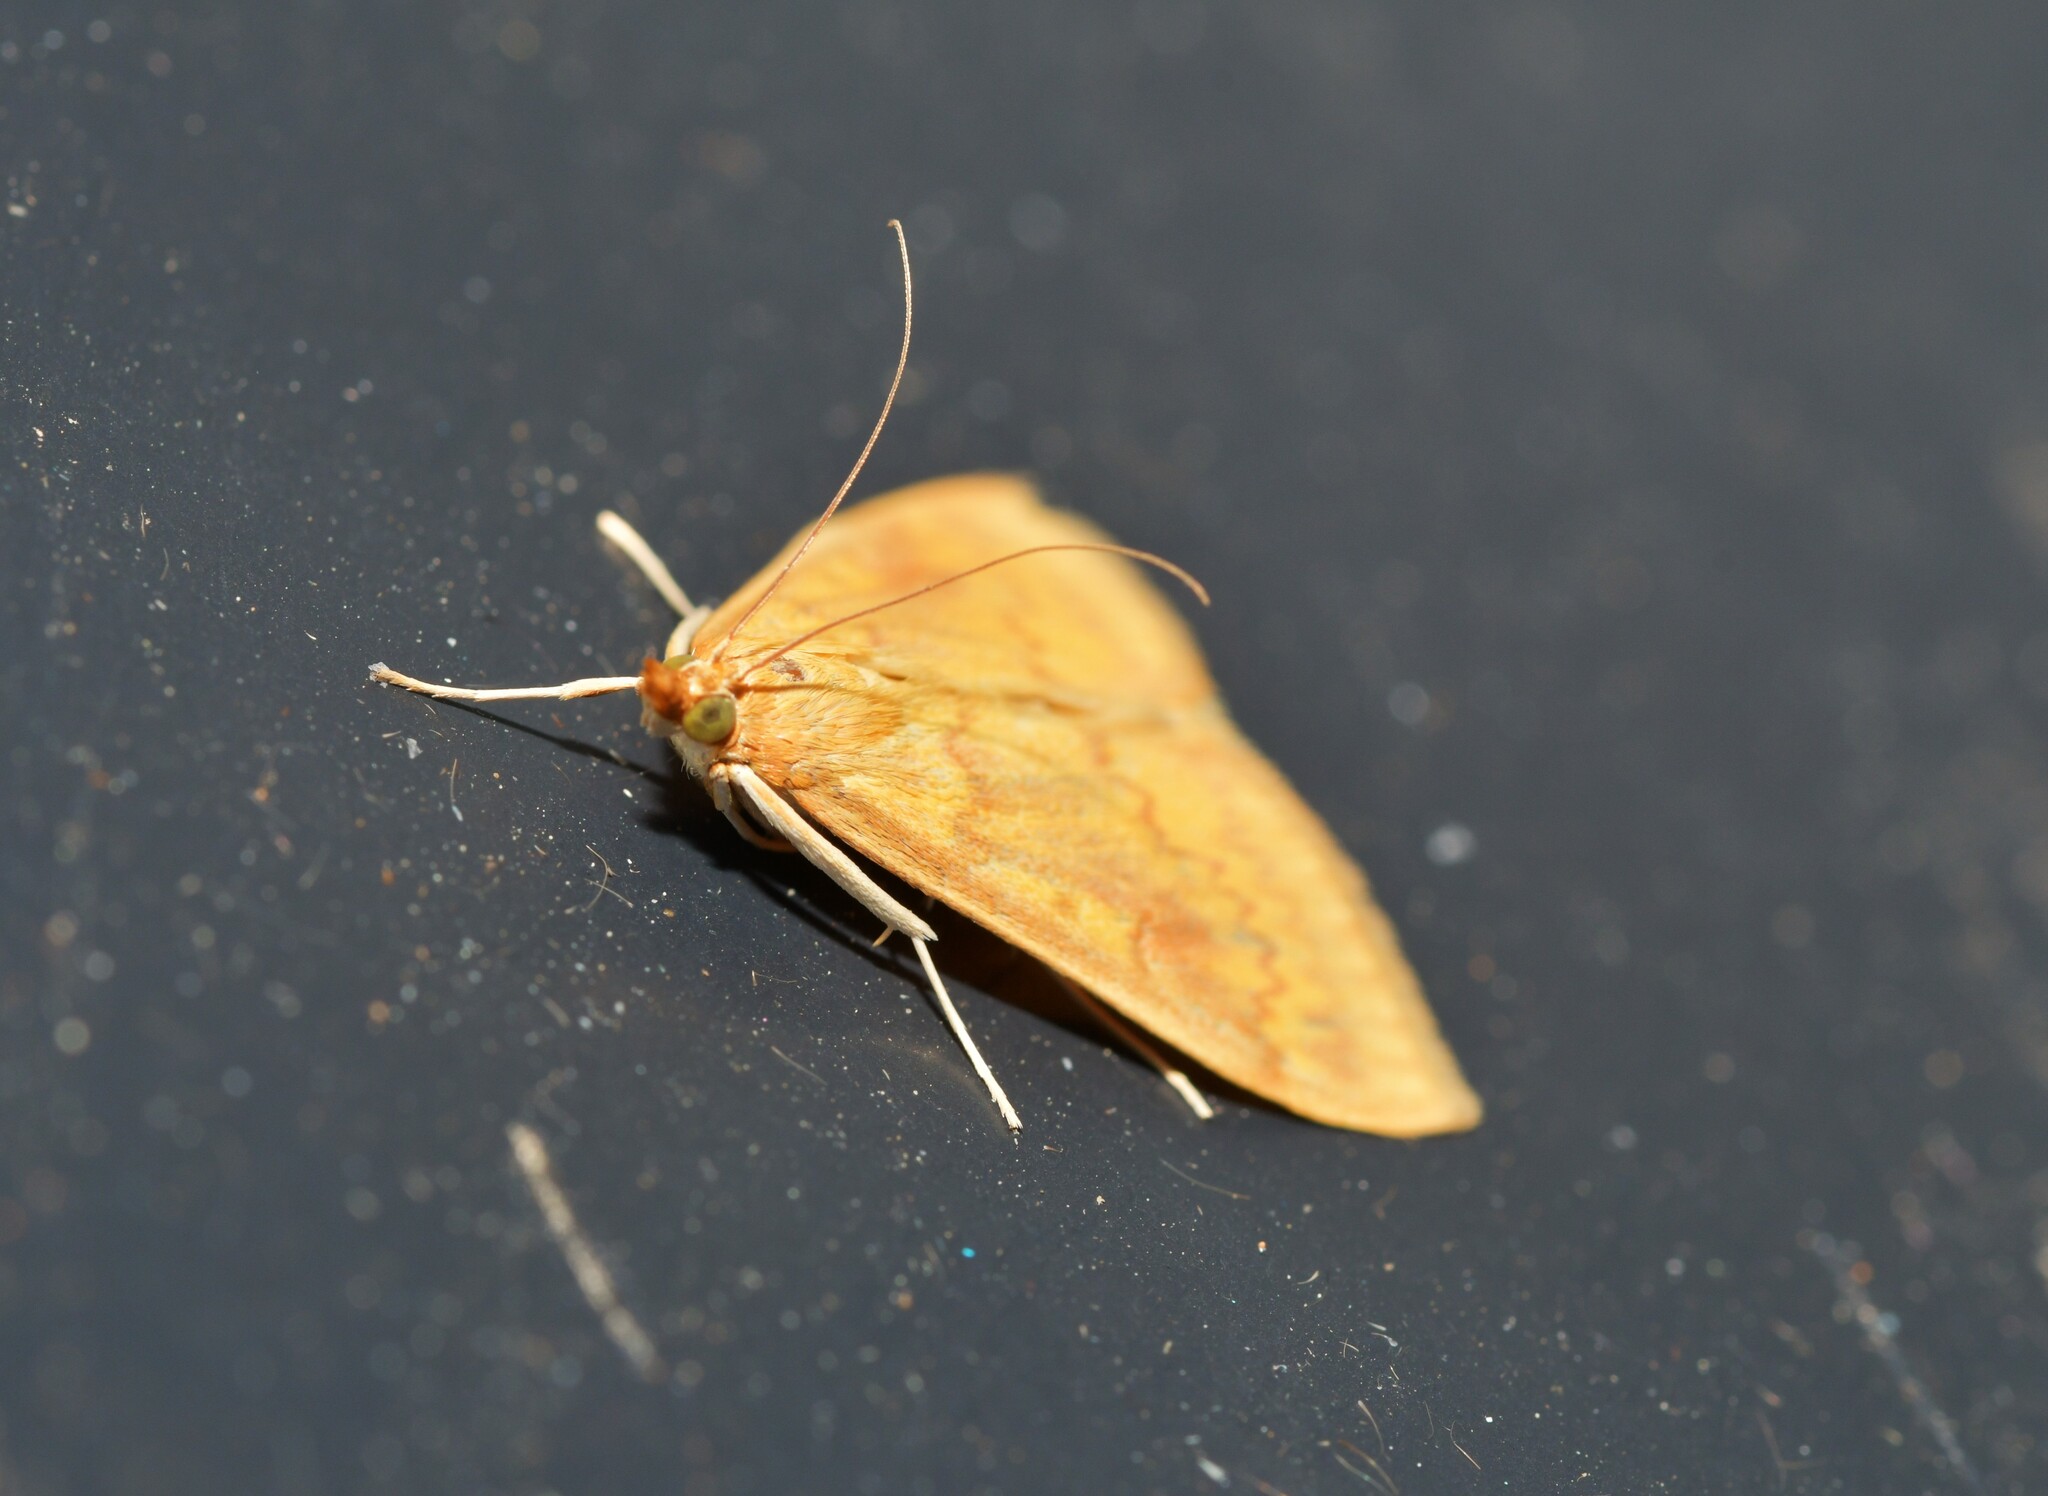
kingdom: Animalia
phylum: Arthropoda
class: Insecta
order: Lepidoptera
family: Crambidae
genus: Ostrinia
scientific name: Ostrinia nubilalis
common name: European corn borer
